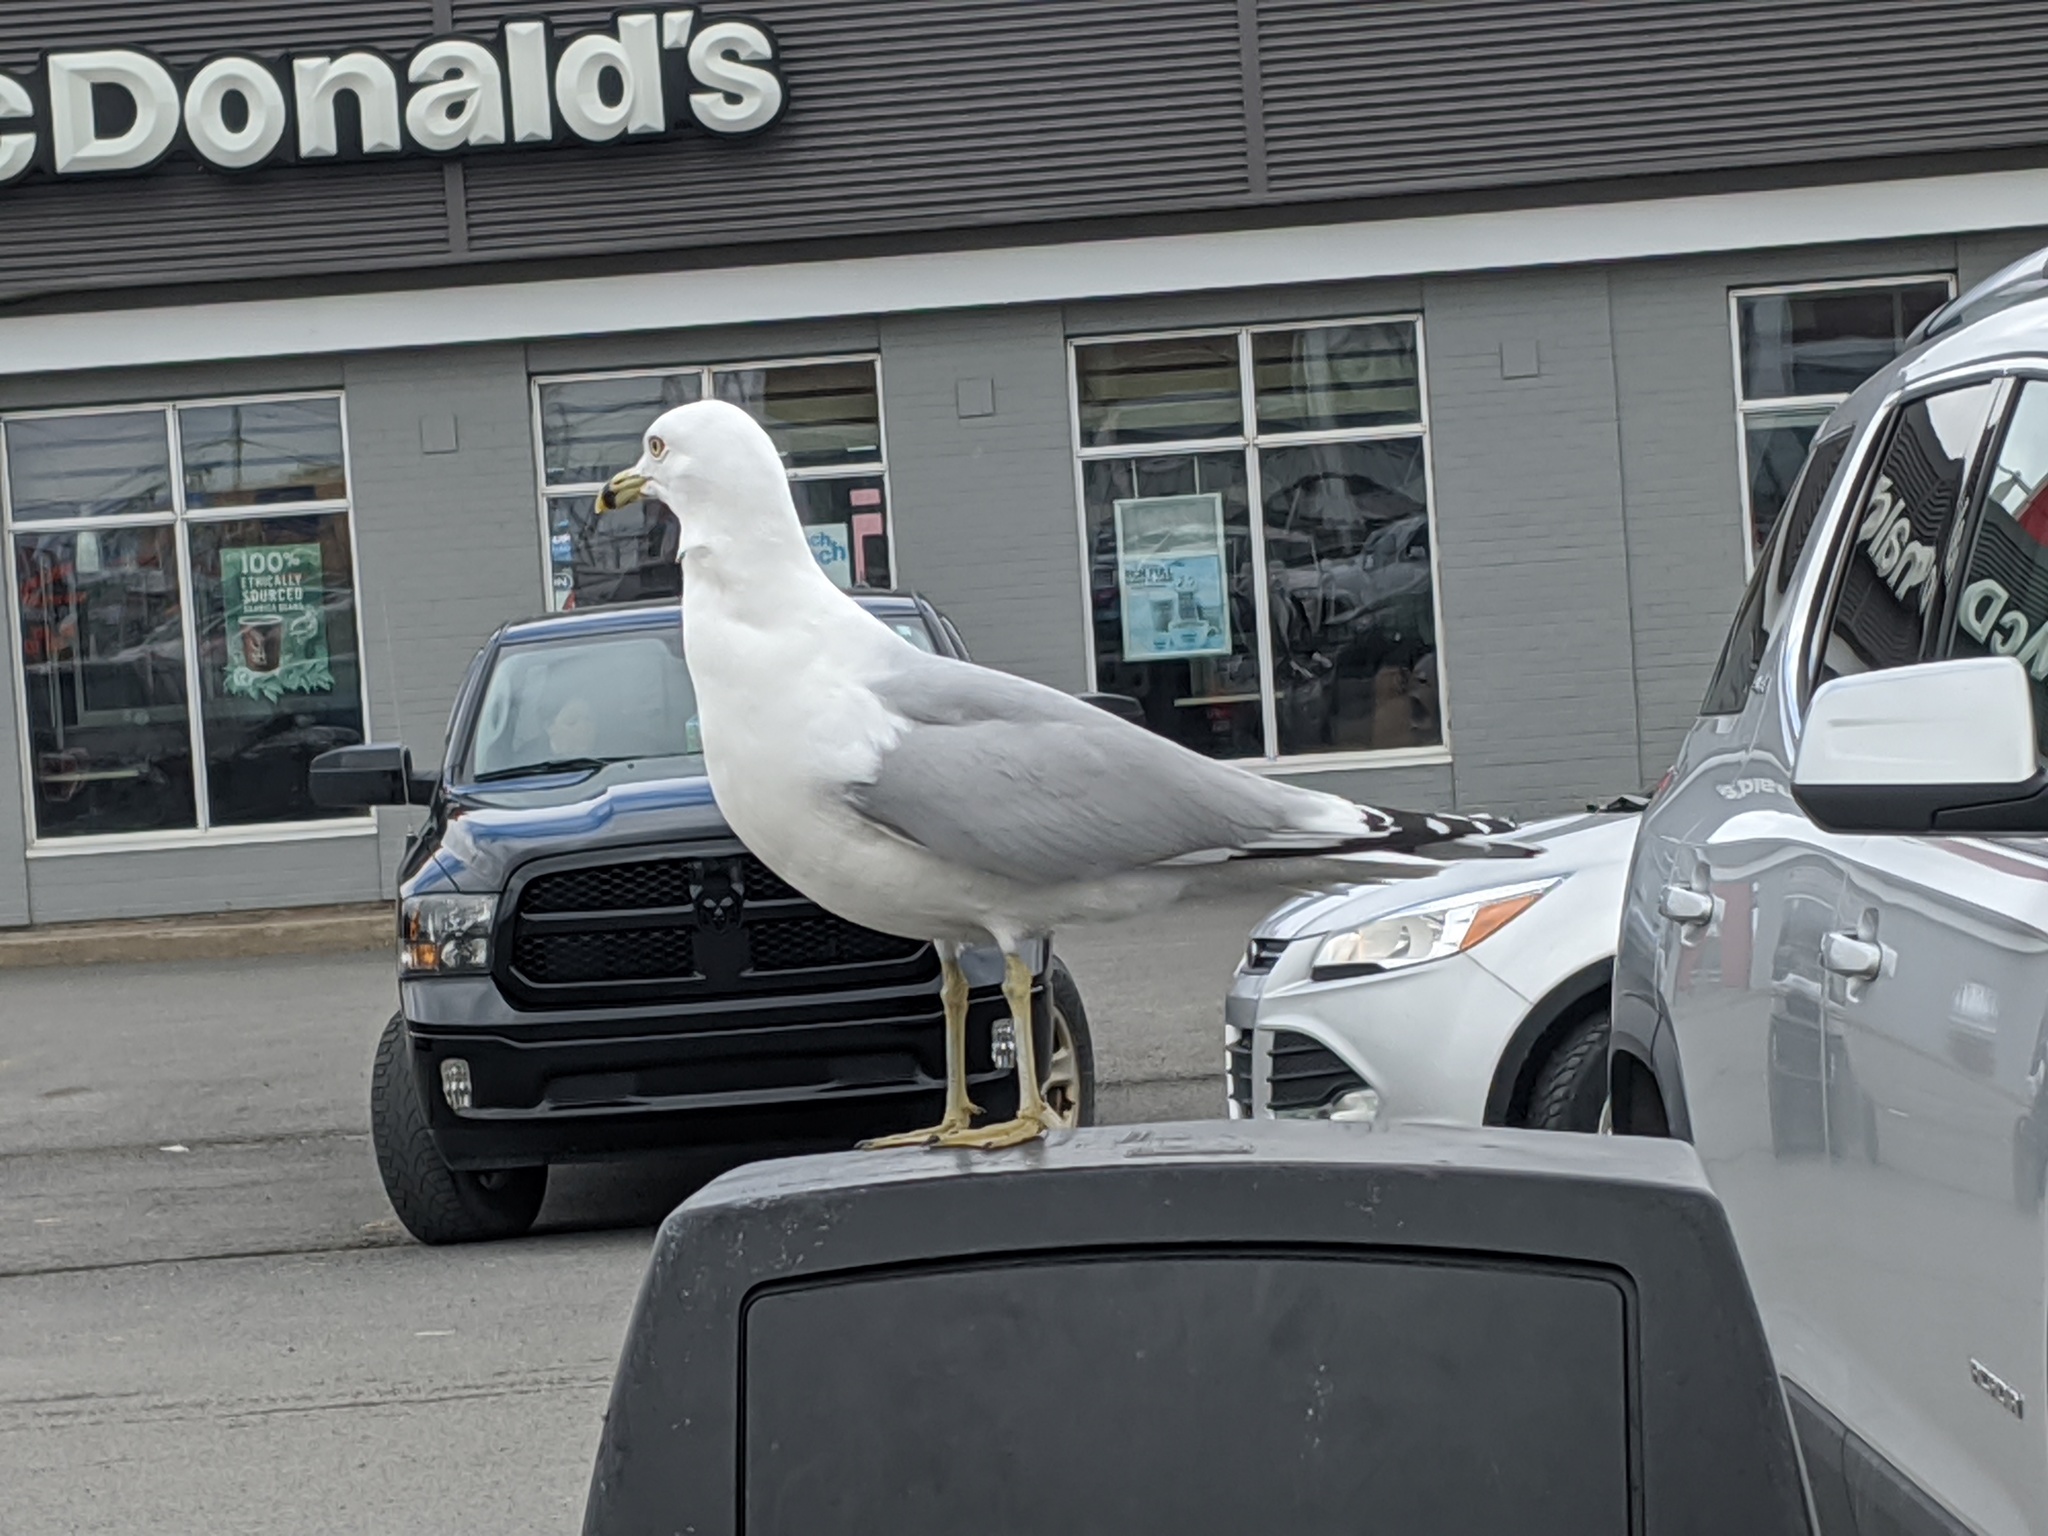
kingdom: Animalia
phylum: Chordata
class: Aves
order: Charadriiformes
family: Laridae
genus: Larus
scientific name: Larus delawarensis
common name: Ring-billed gull
